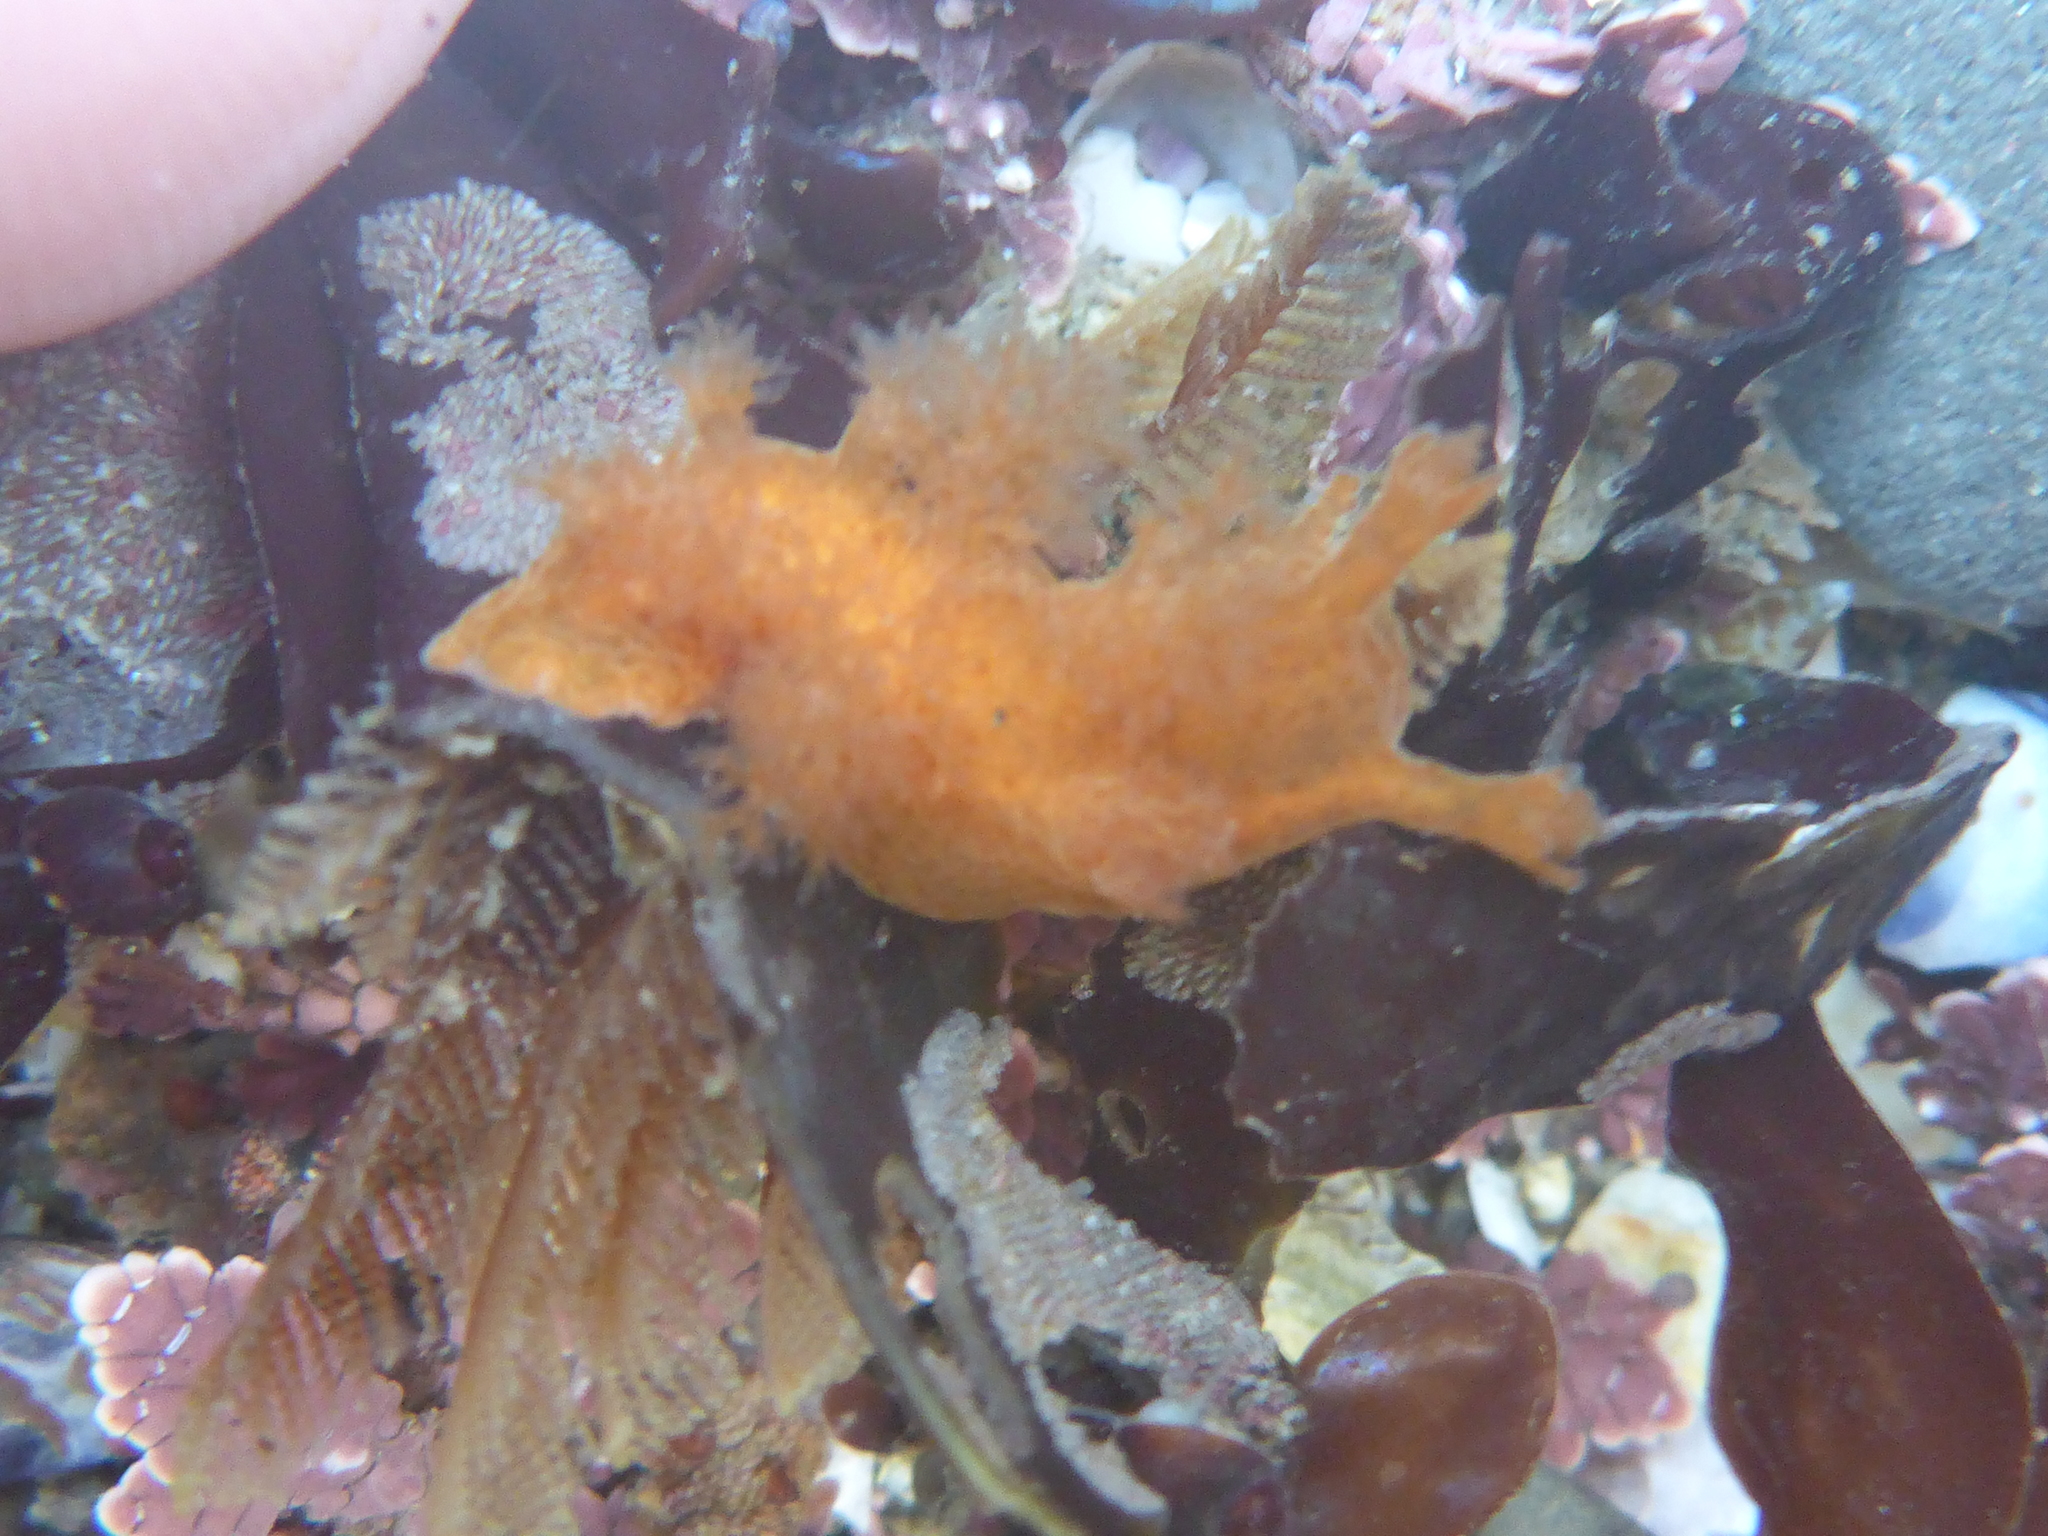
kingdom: Animalia
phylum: Mollusca
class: Gastropoda
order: Nudibranchia
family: Dendronotidae
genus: Dendronotus
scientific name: Dendronotus subramosus
